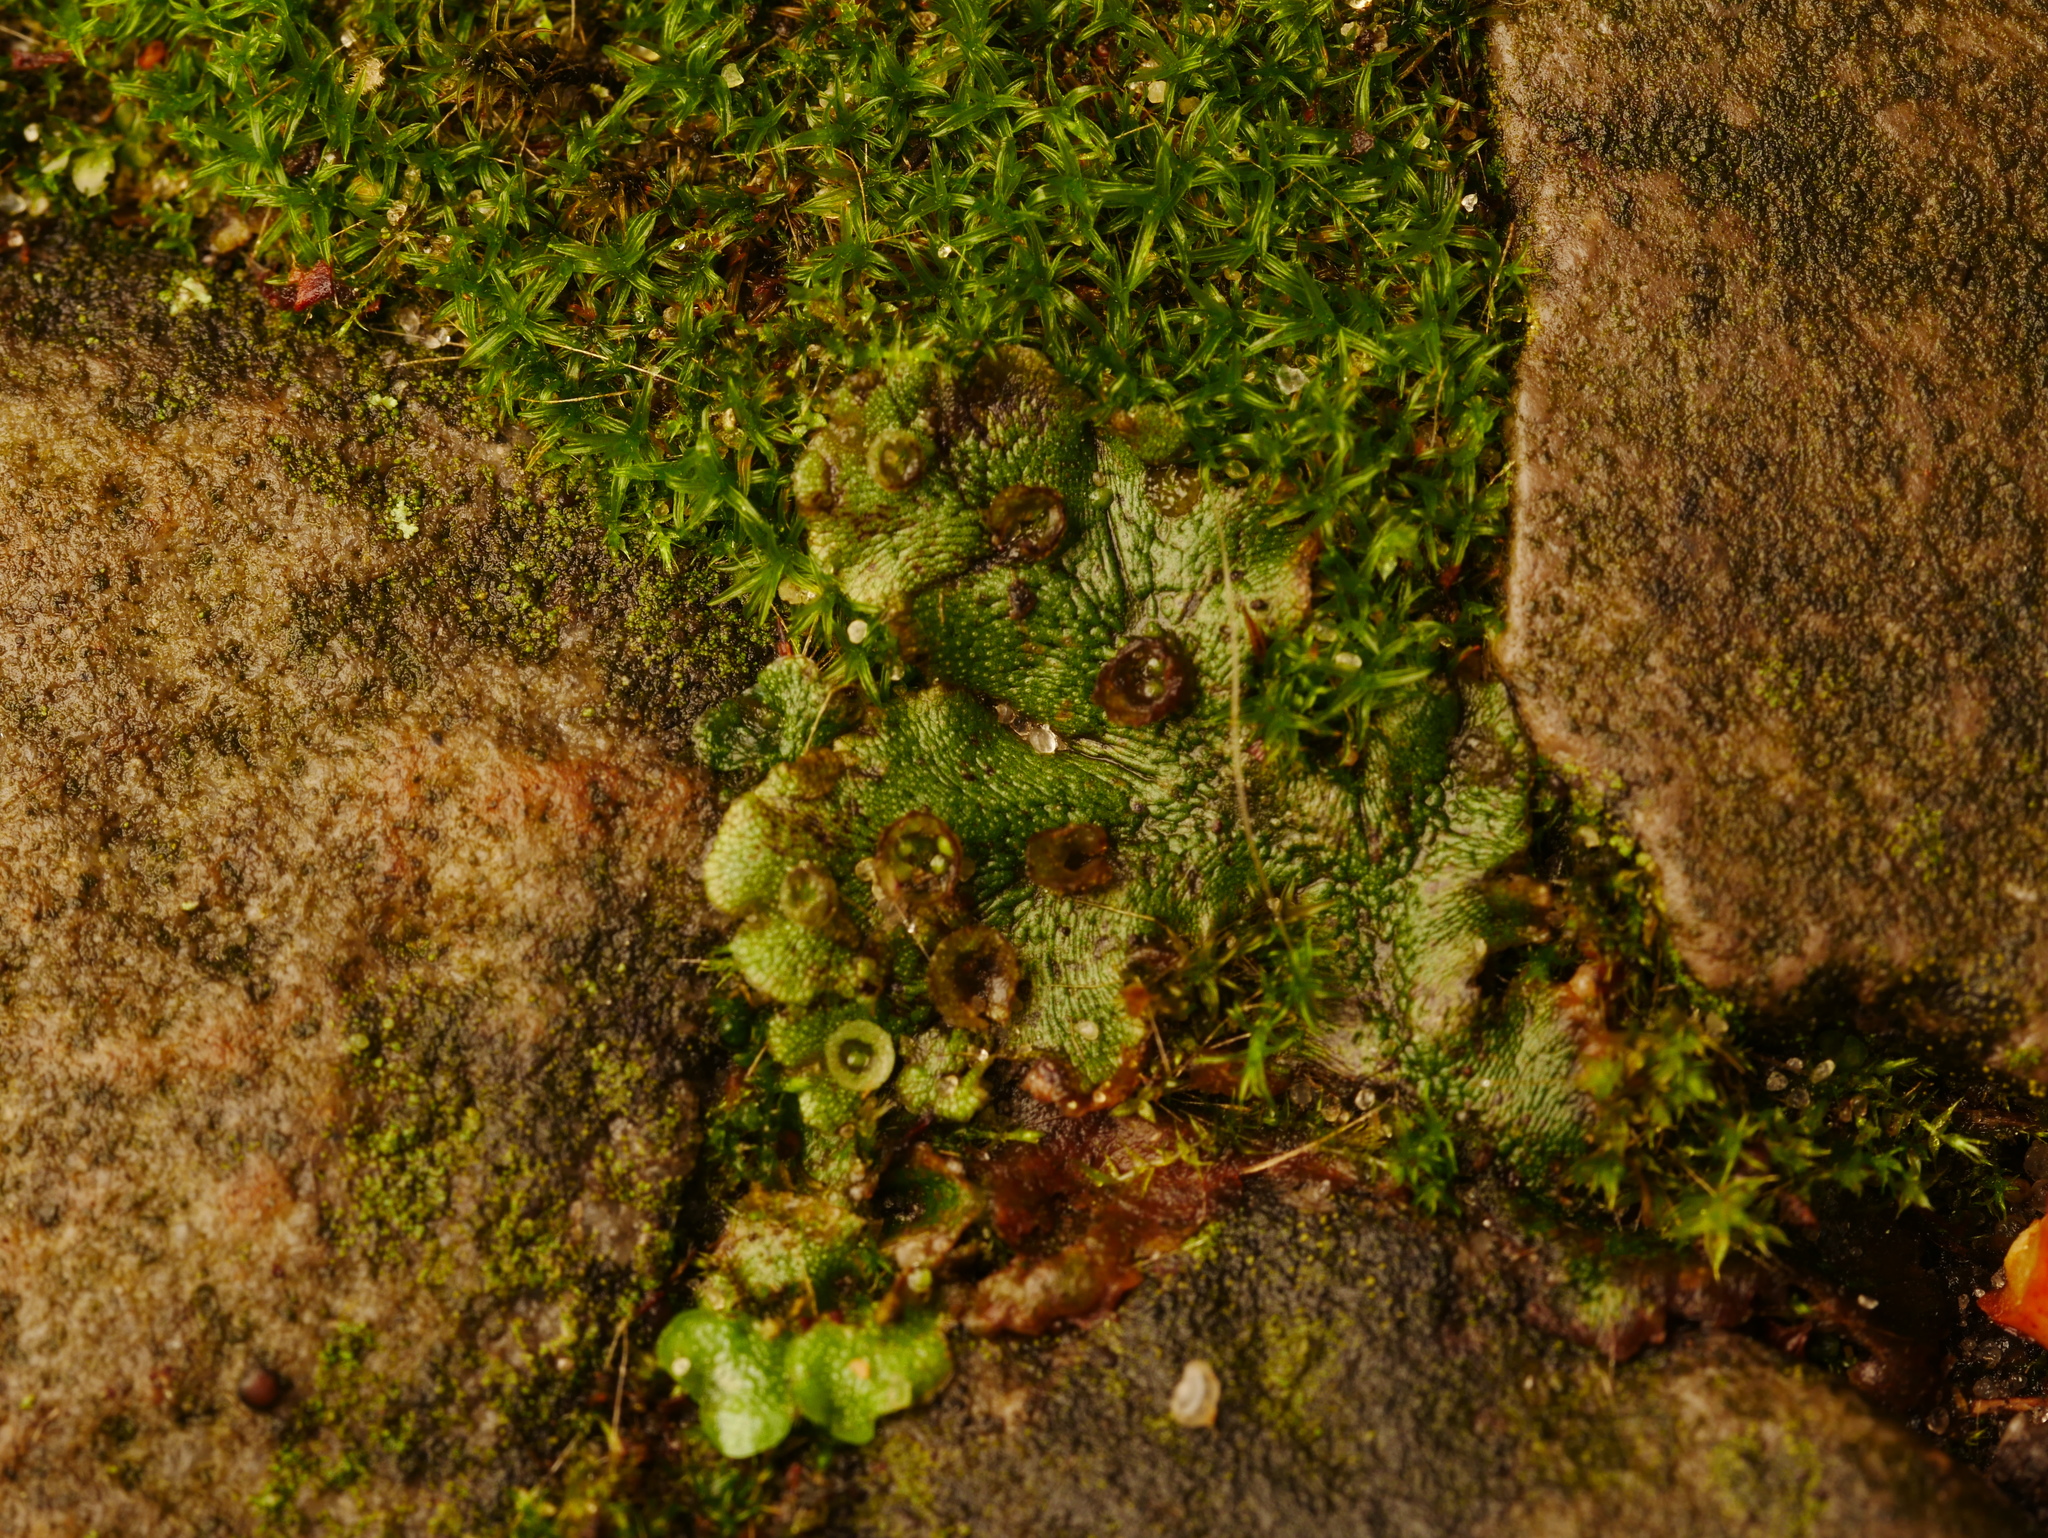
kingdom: Plantae
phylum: Marchantiophyta
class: Marchantiopsida
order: Marchantiales
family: Marchantiaceae
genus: Marchantia
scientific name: Marchantia polymorpha
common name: Common liverwort
